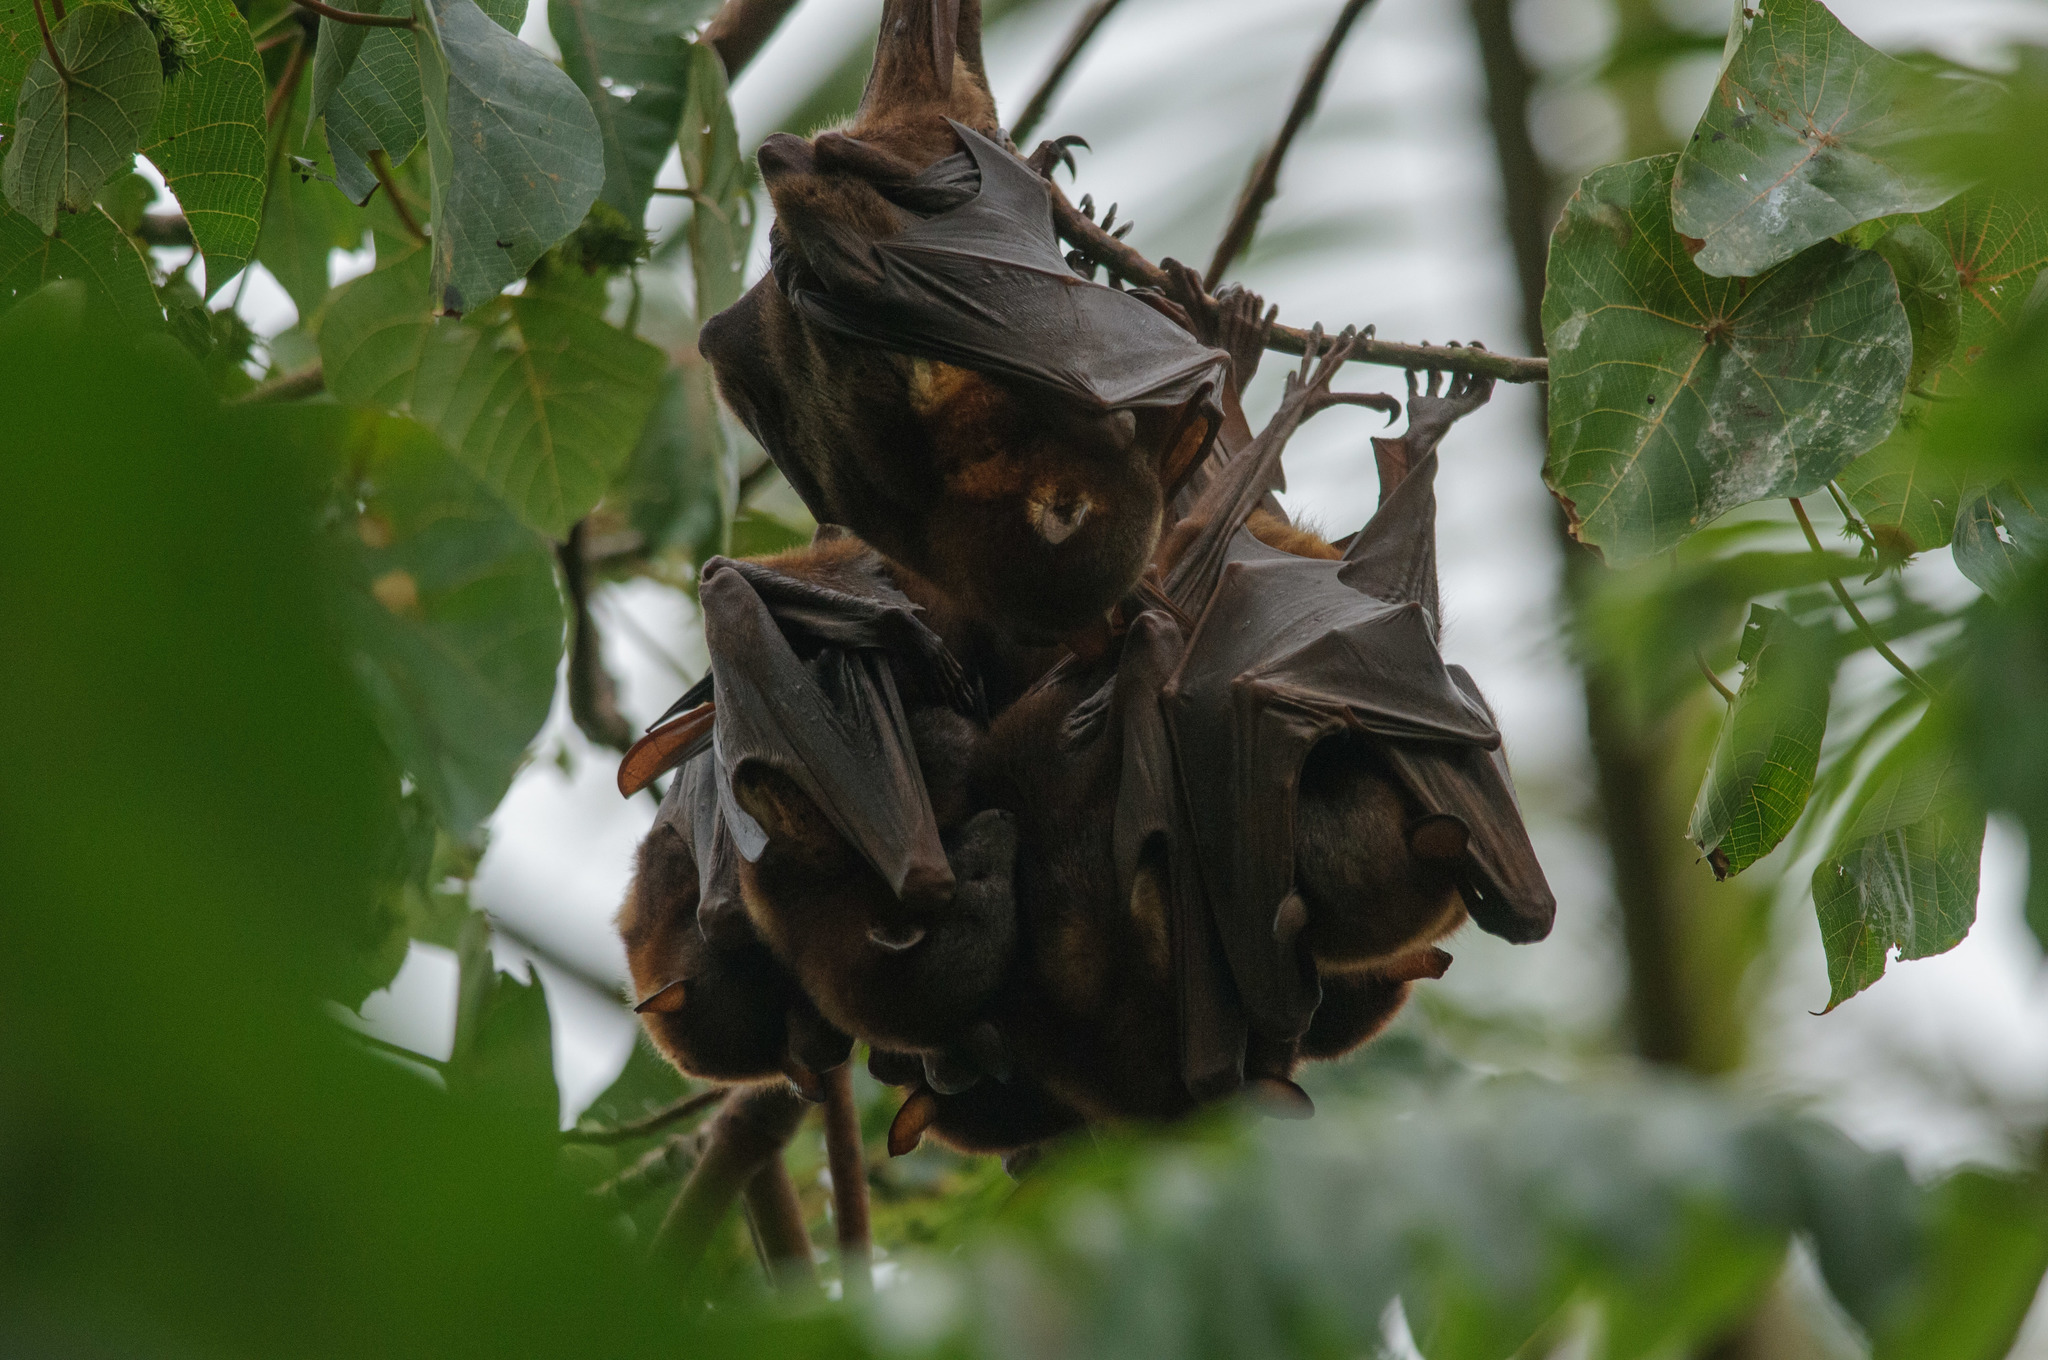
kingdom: Animalia
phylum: Chordata
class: Mammalia
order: Chiroptera
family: Pteropodidae
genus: Pteropus
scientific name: Pteropus scapulatus
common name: Little red flying fox
